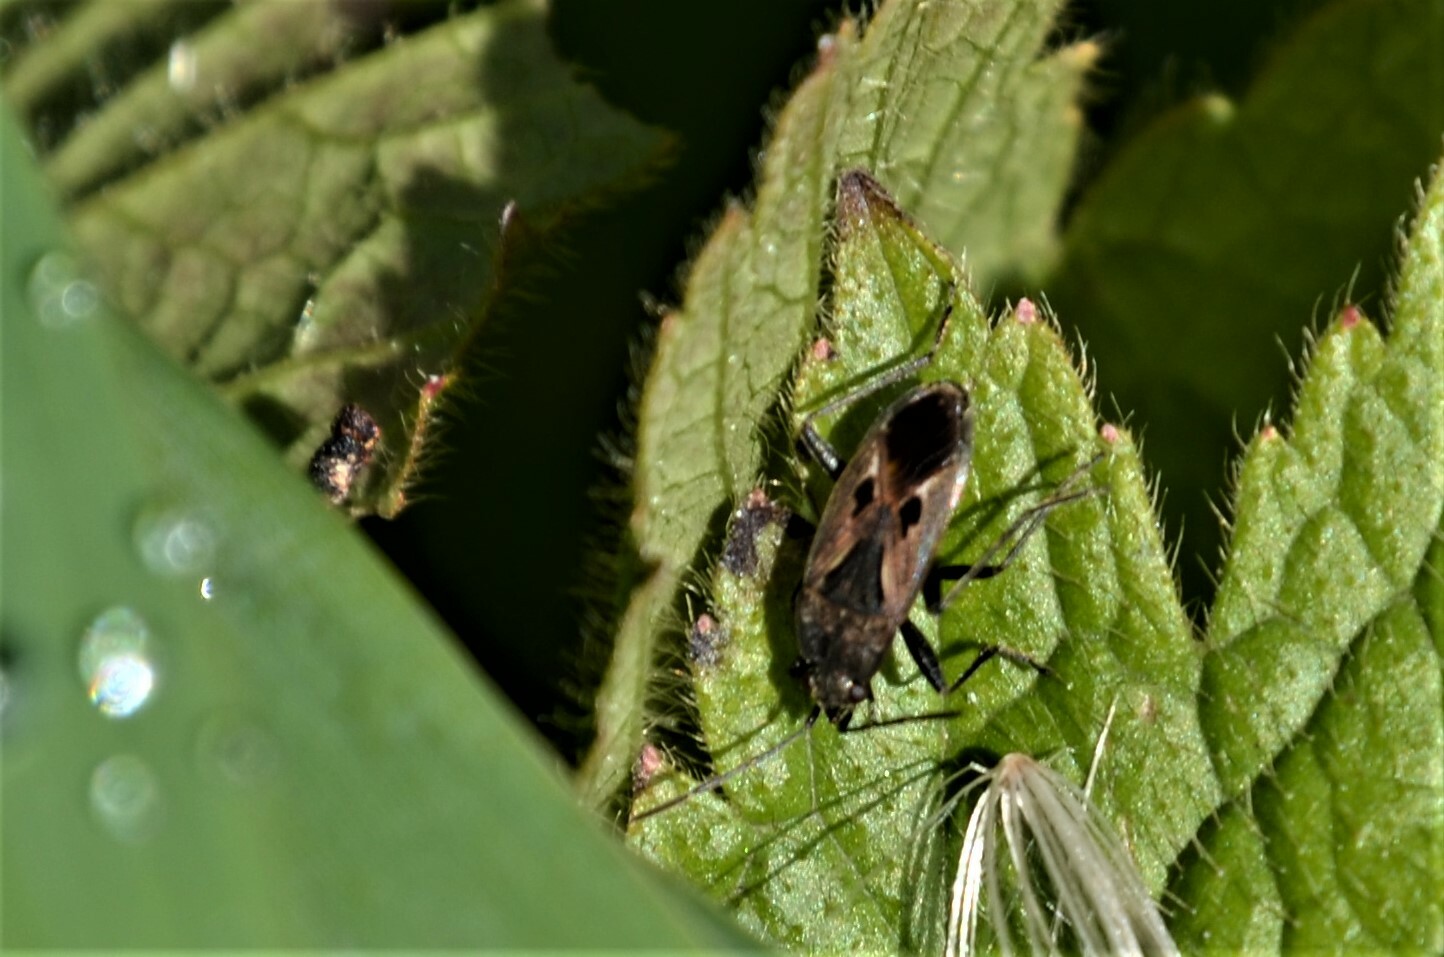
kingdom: Animalia
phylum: Arthropoda
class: Insecta
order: Hemiptera
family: Rhyparochromidae
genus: Rhyparochromus
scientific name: Rhyparochromus pini
